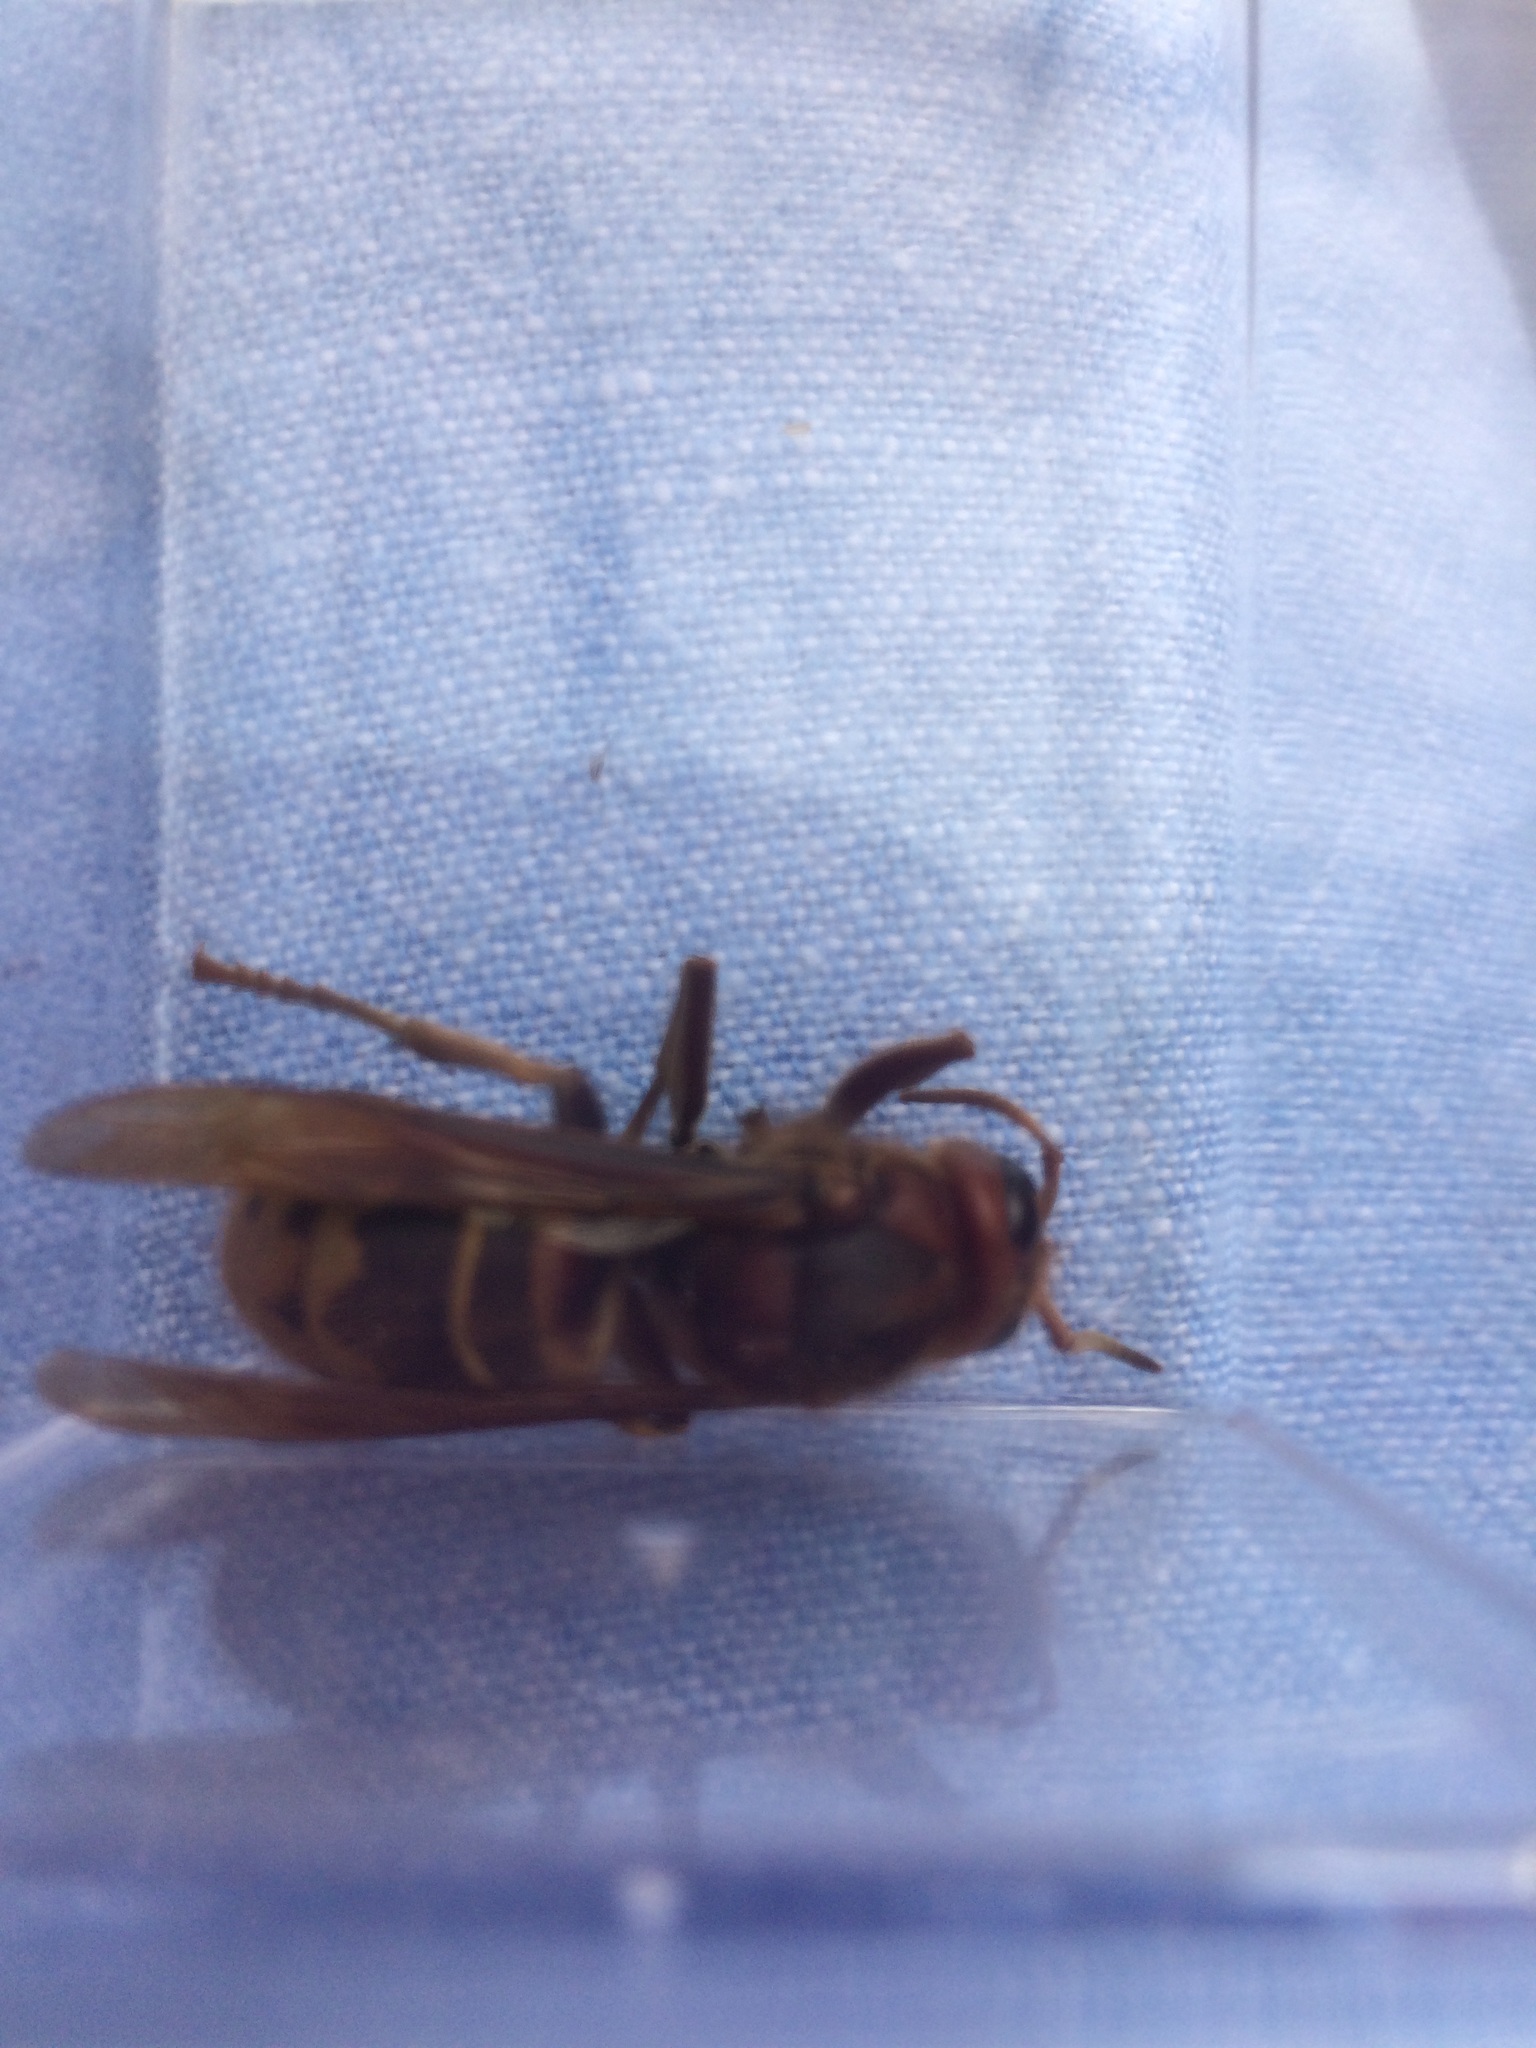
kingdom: Animalia
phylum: Arthropoda
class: Insecta
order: Hymenoptera
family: Vespidae
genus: Vespa
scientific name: Vespa crabro
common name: Hornet
